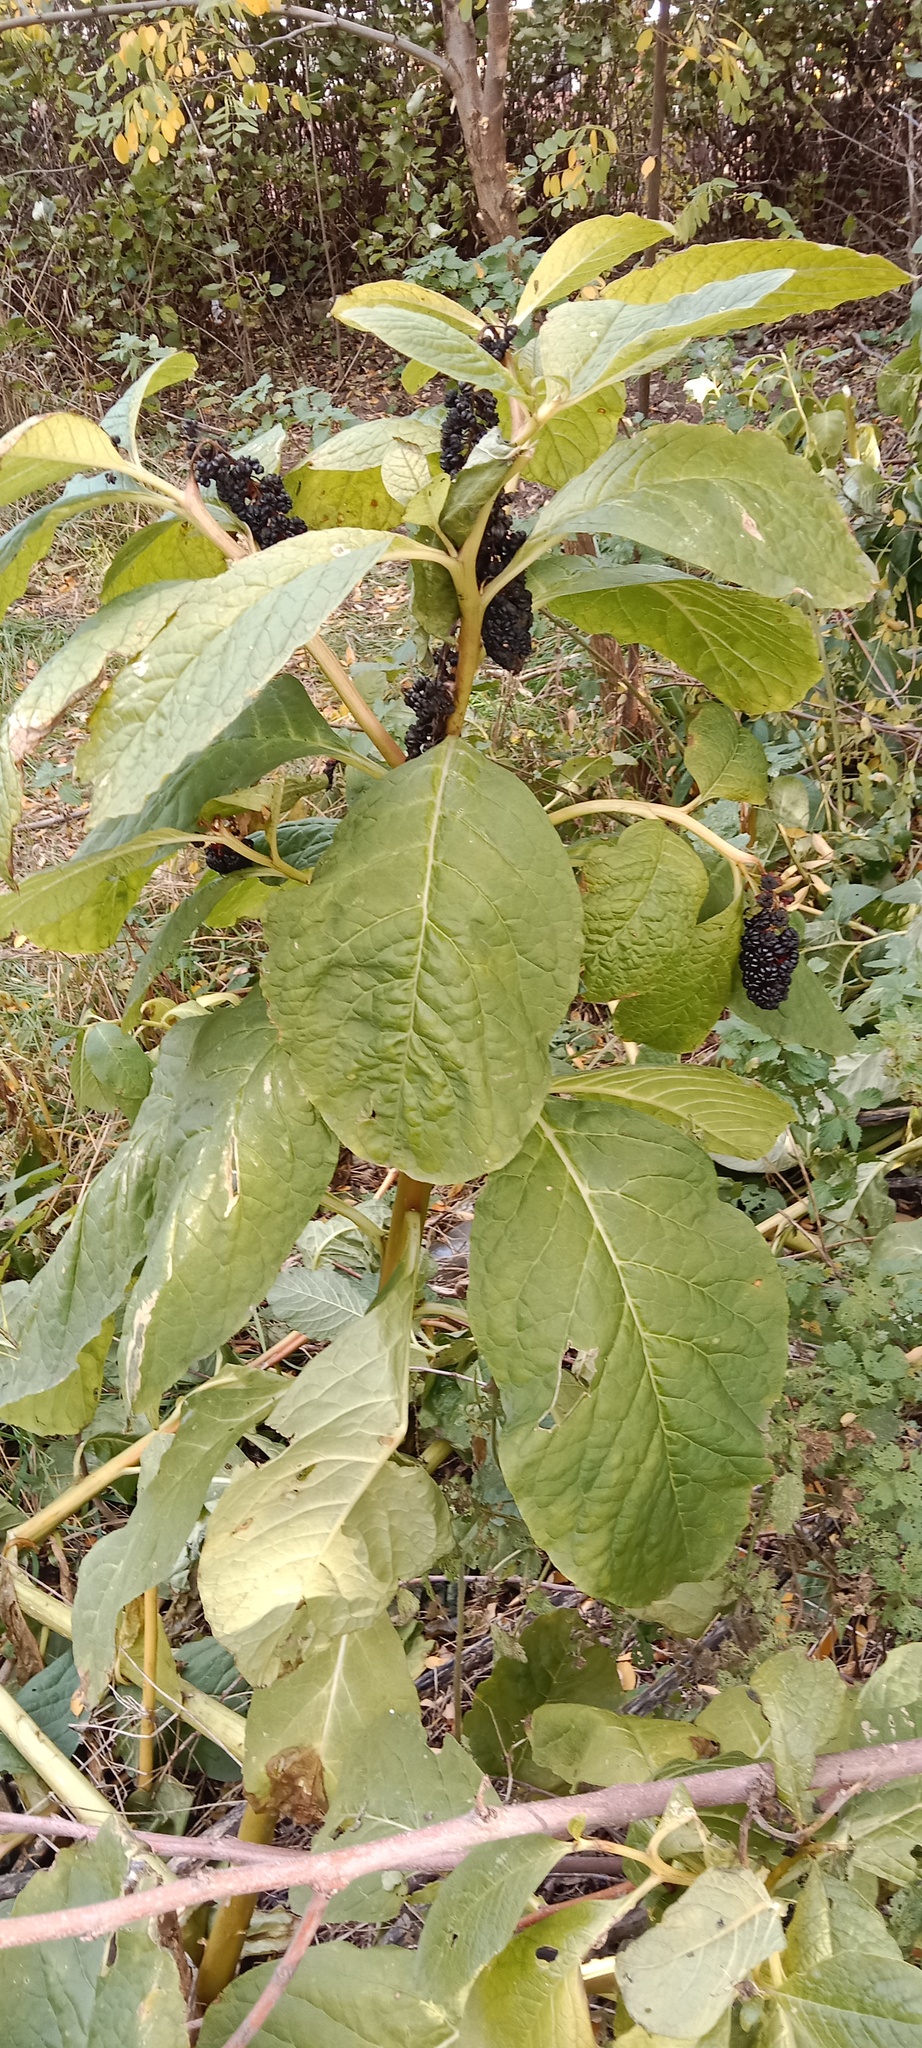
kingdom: Plantae
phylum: Tracheophyta
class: Magnoliopsida
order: Caryophyllales
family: Phytolaccaceae
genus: Phytolacca
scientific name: Phytolacca acinosa
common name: Indian pokeweed
